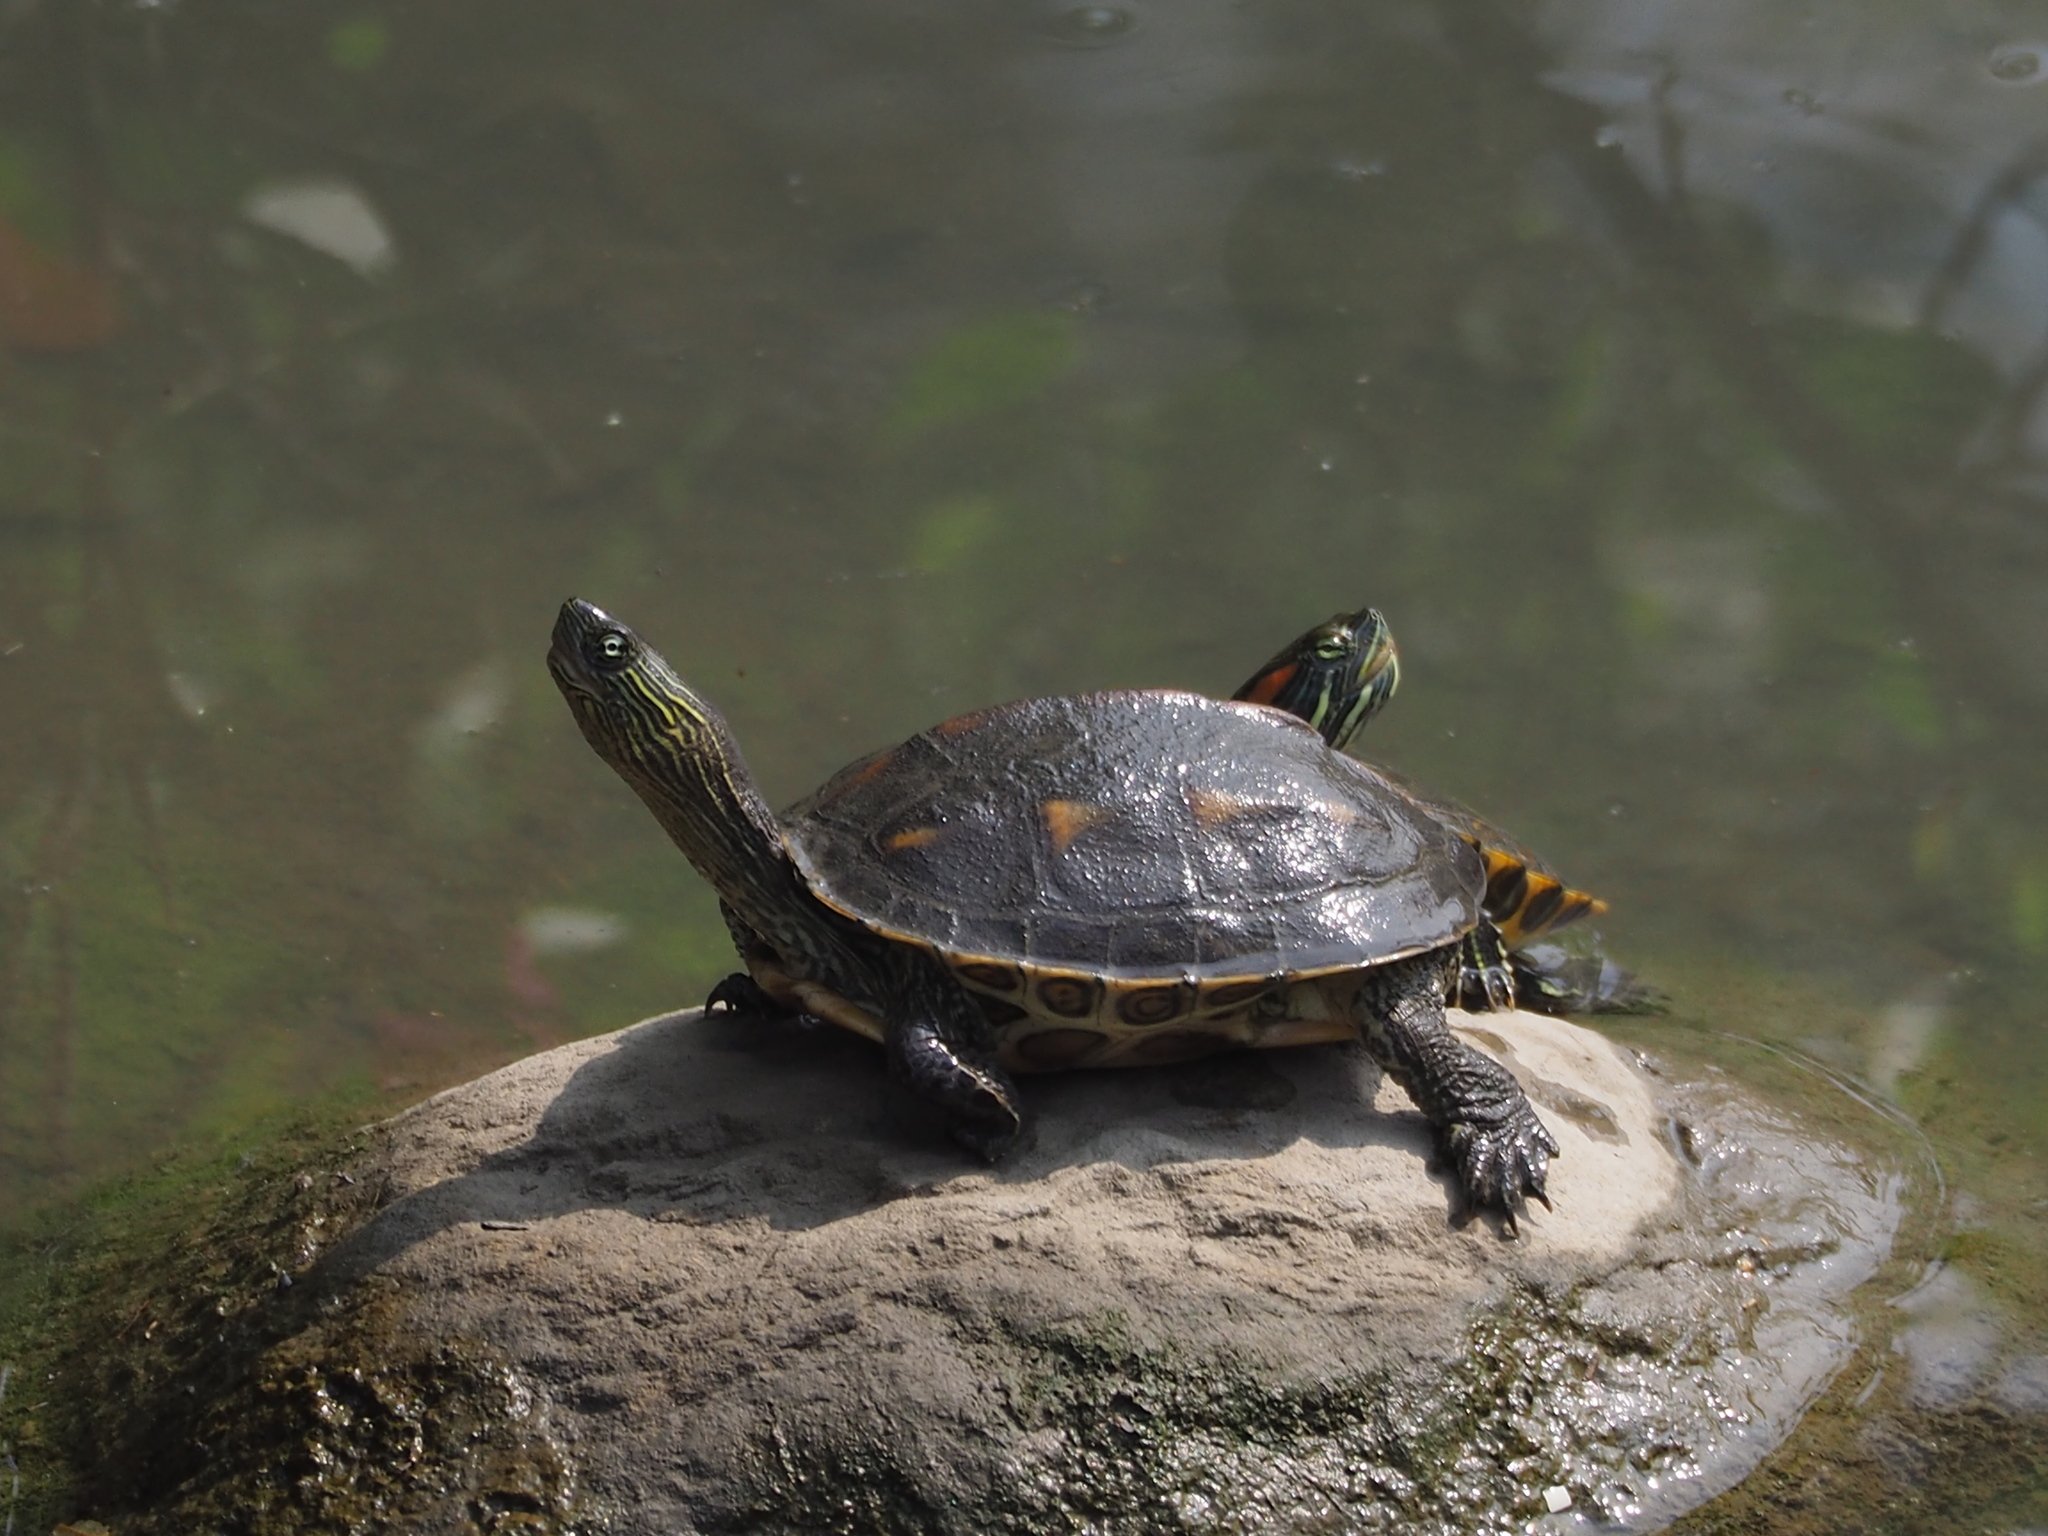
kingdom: Animalia
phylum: Chordata
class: Testudines
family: Geoemydidae
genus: Mauremys
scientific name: Mauremys sinensis
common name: Chinese stripe-necked turtle
